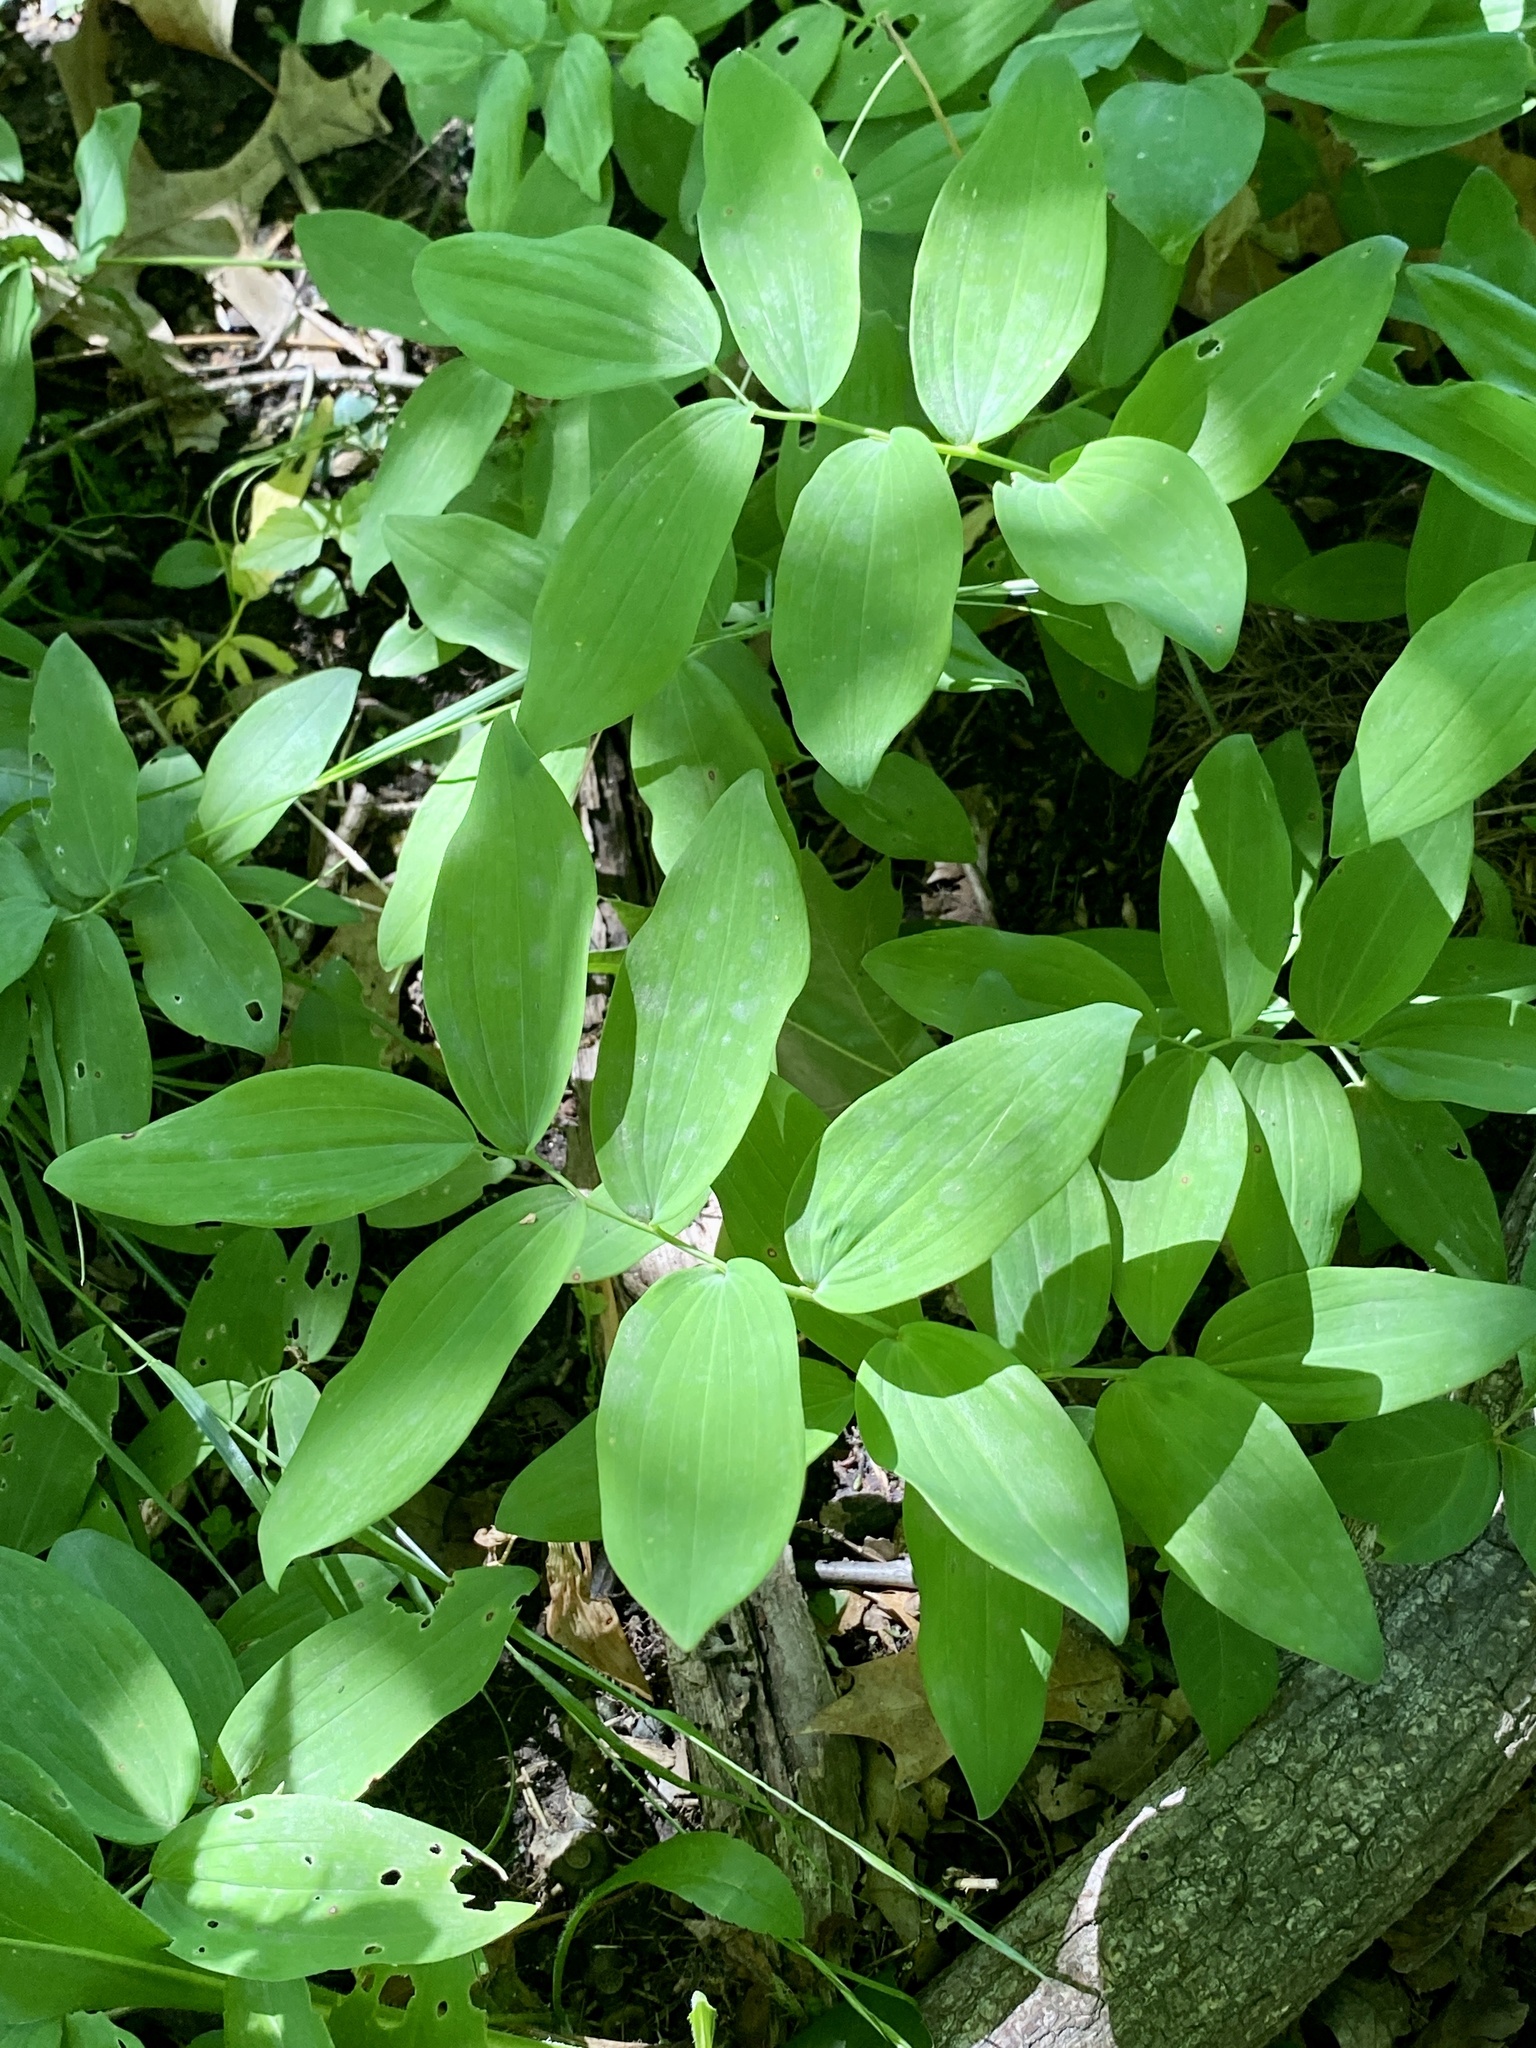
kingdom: Plantae
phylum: Tracheophyta
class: Liliopsida
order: Asparagales
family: Asparagaceae
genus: Polygonatum
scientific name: Polygonatum pubescens
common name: Downy solomon's seal
